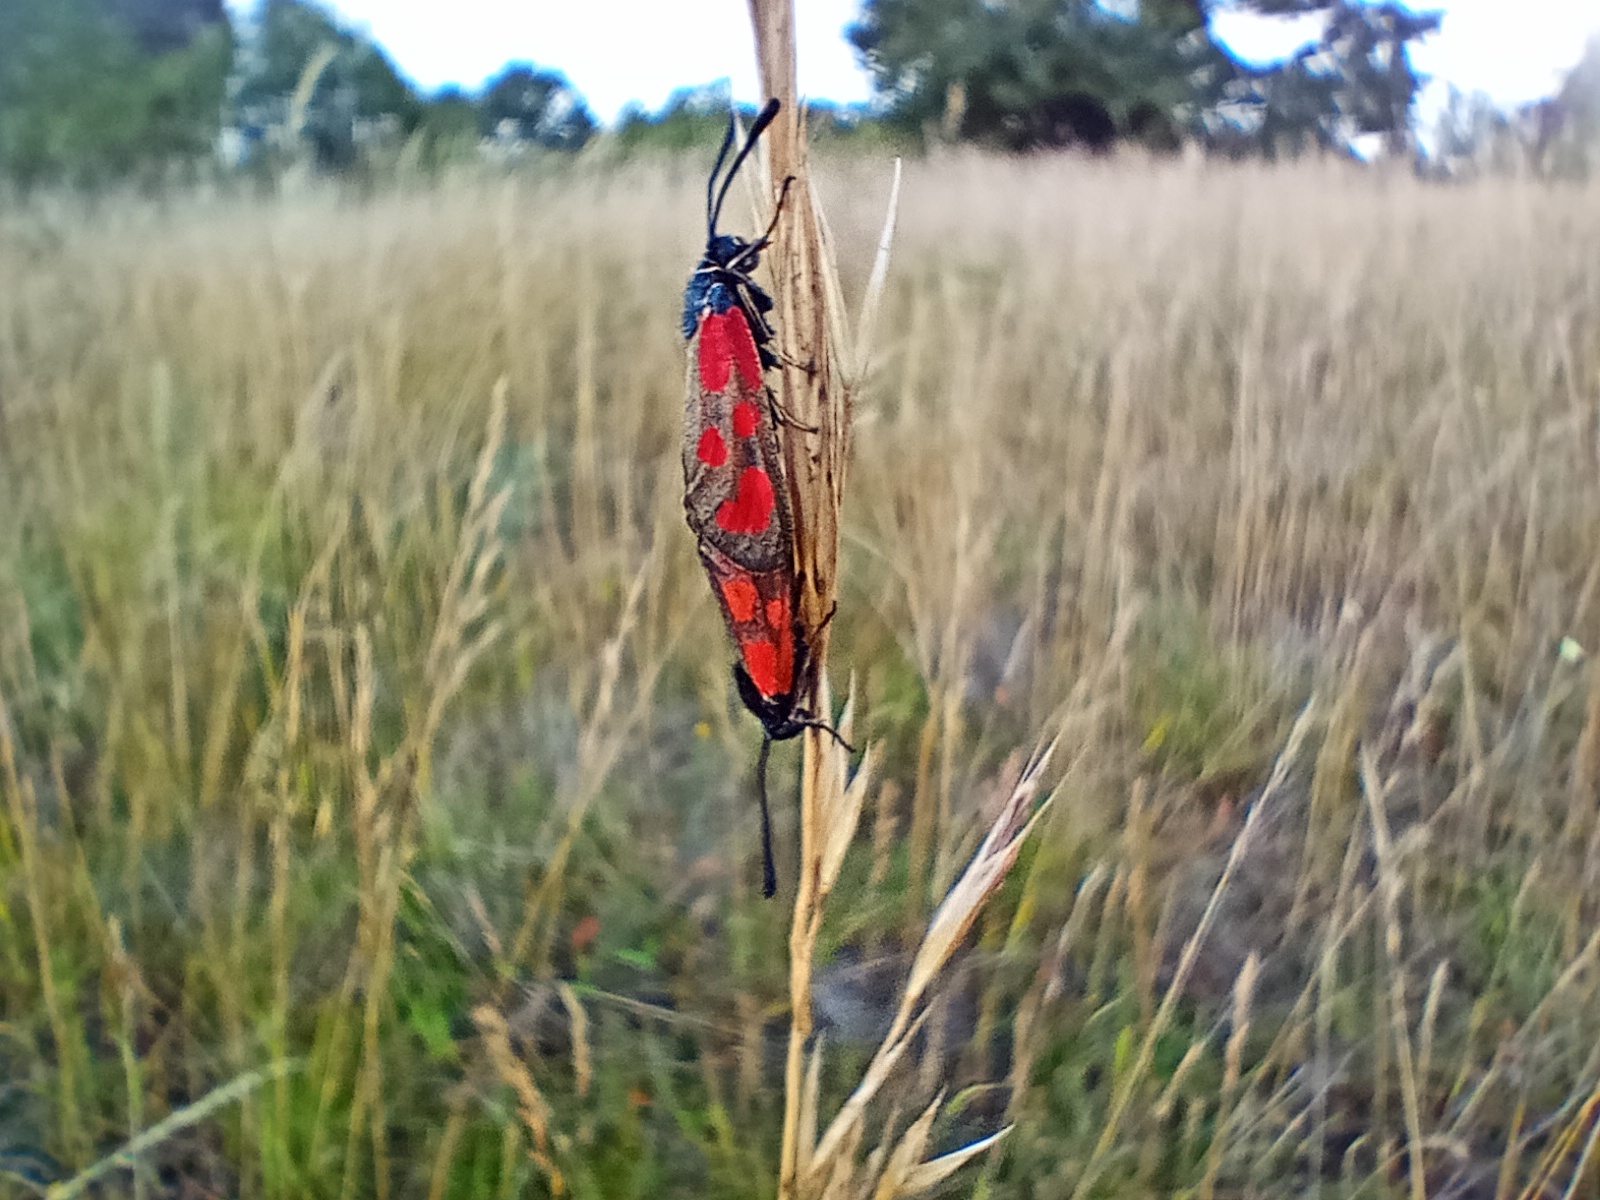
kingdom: Animalia
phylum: Arthropoda
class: Insecta
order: Lepidoptera
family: Zygaenidae
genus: Zygaena
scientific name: Zygaena loti
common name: Slender scotch burnet
